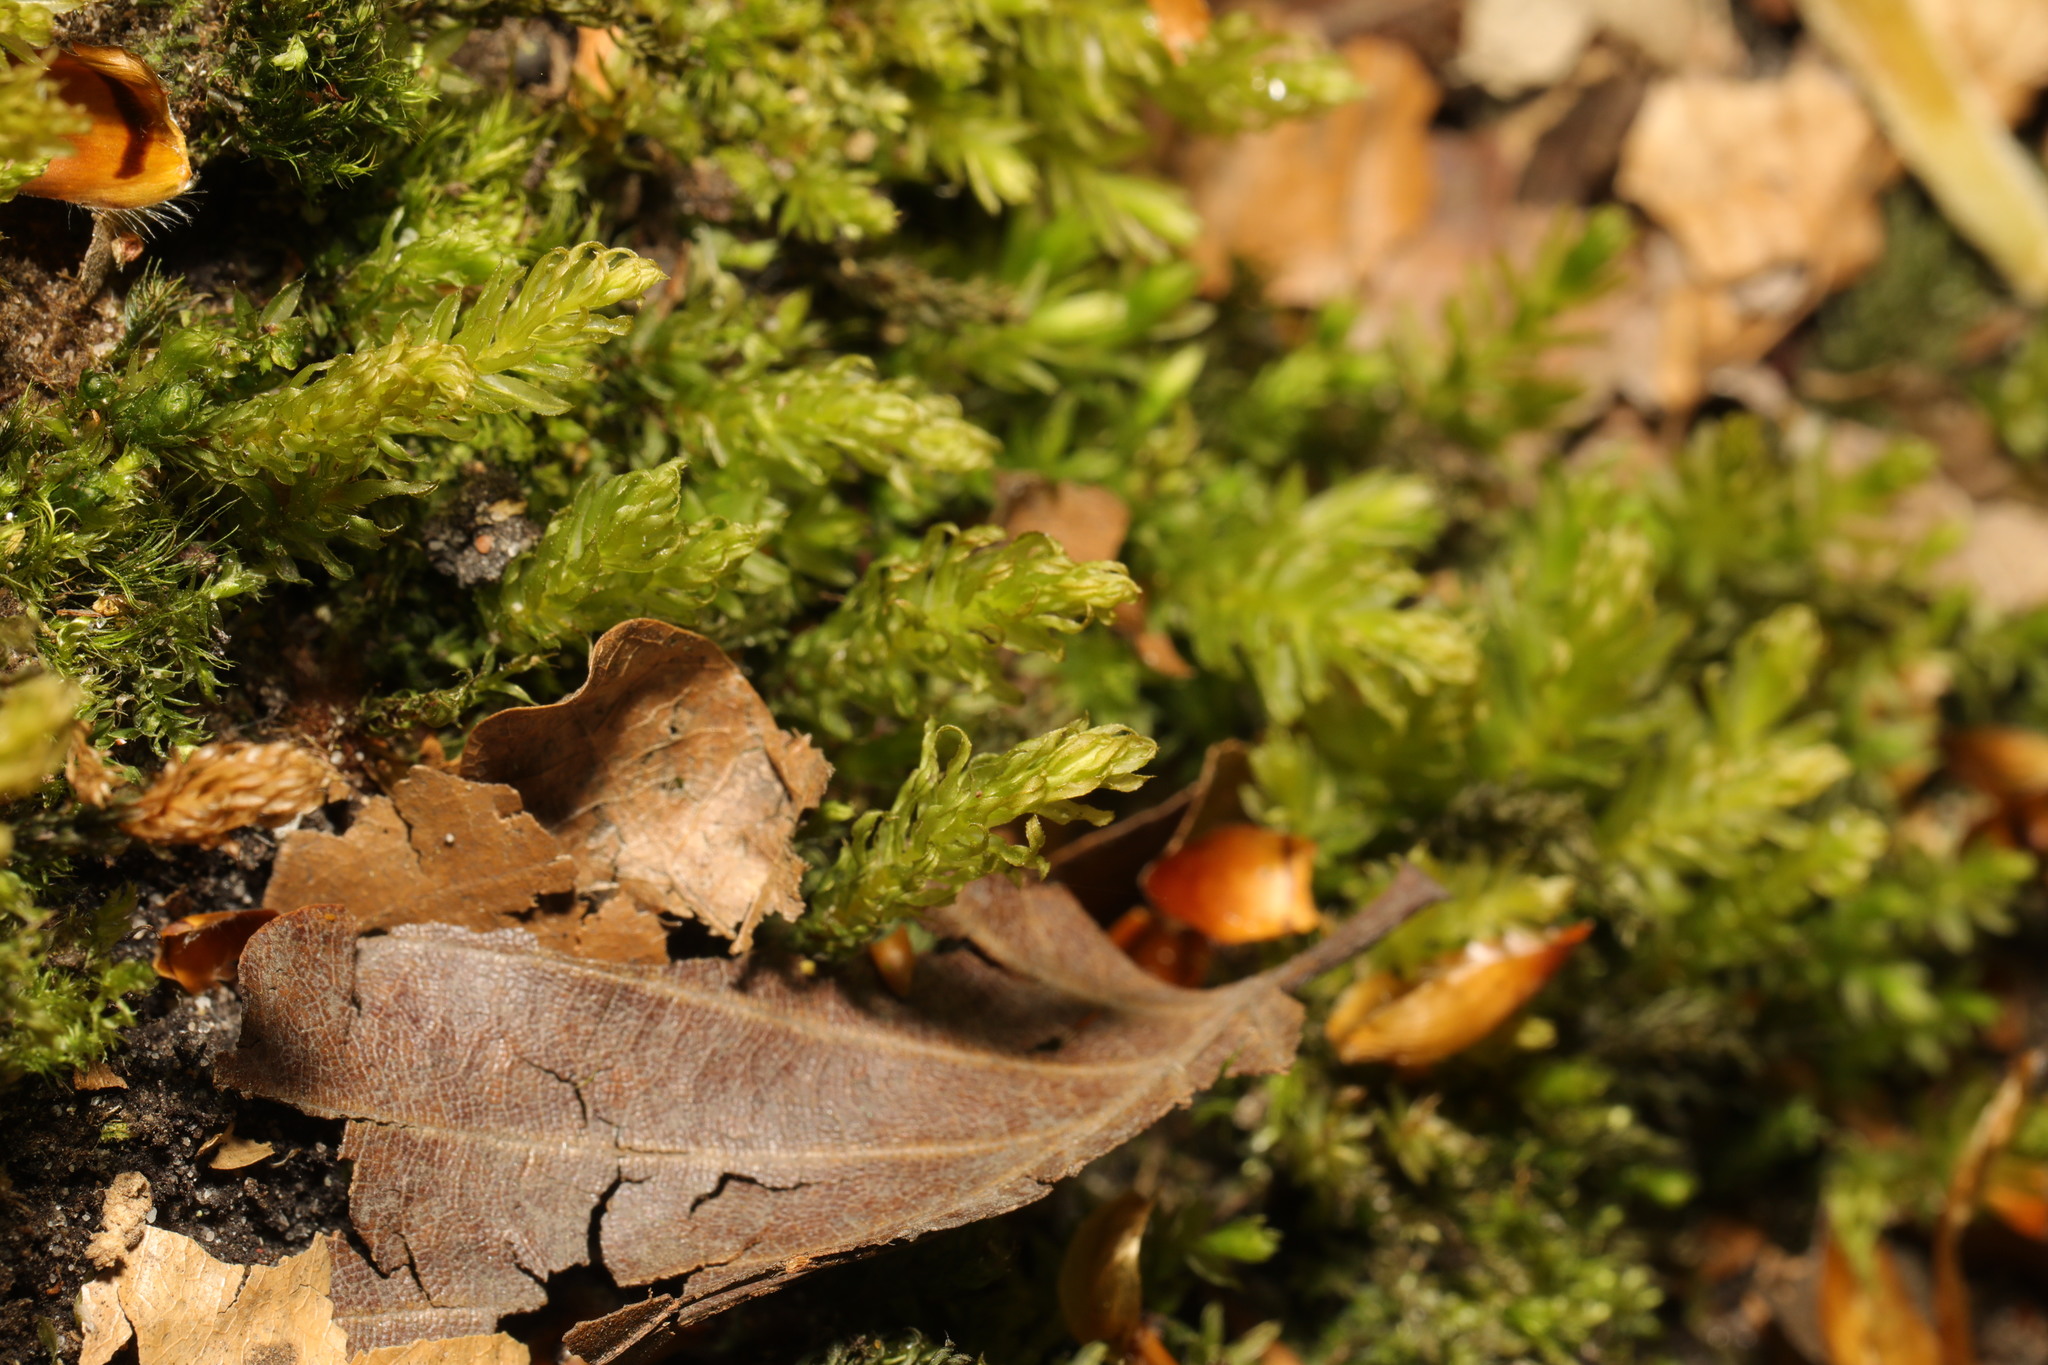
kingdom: Plantae
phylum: Bryophyta
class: Bryopsida
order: Bryales
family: Mniaceae
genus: Mnium
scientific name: Mnium hornum
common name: Swan's-neck leafy moss
